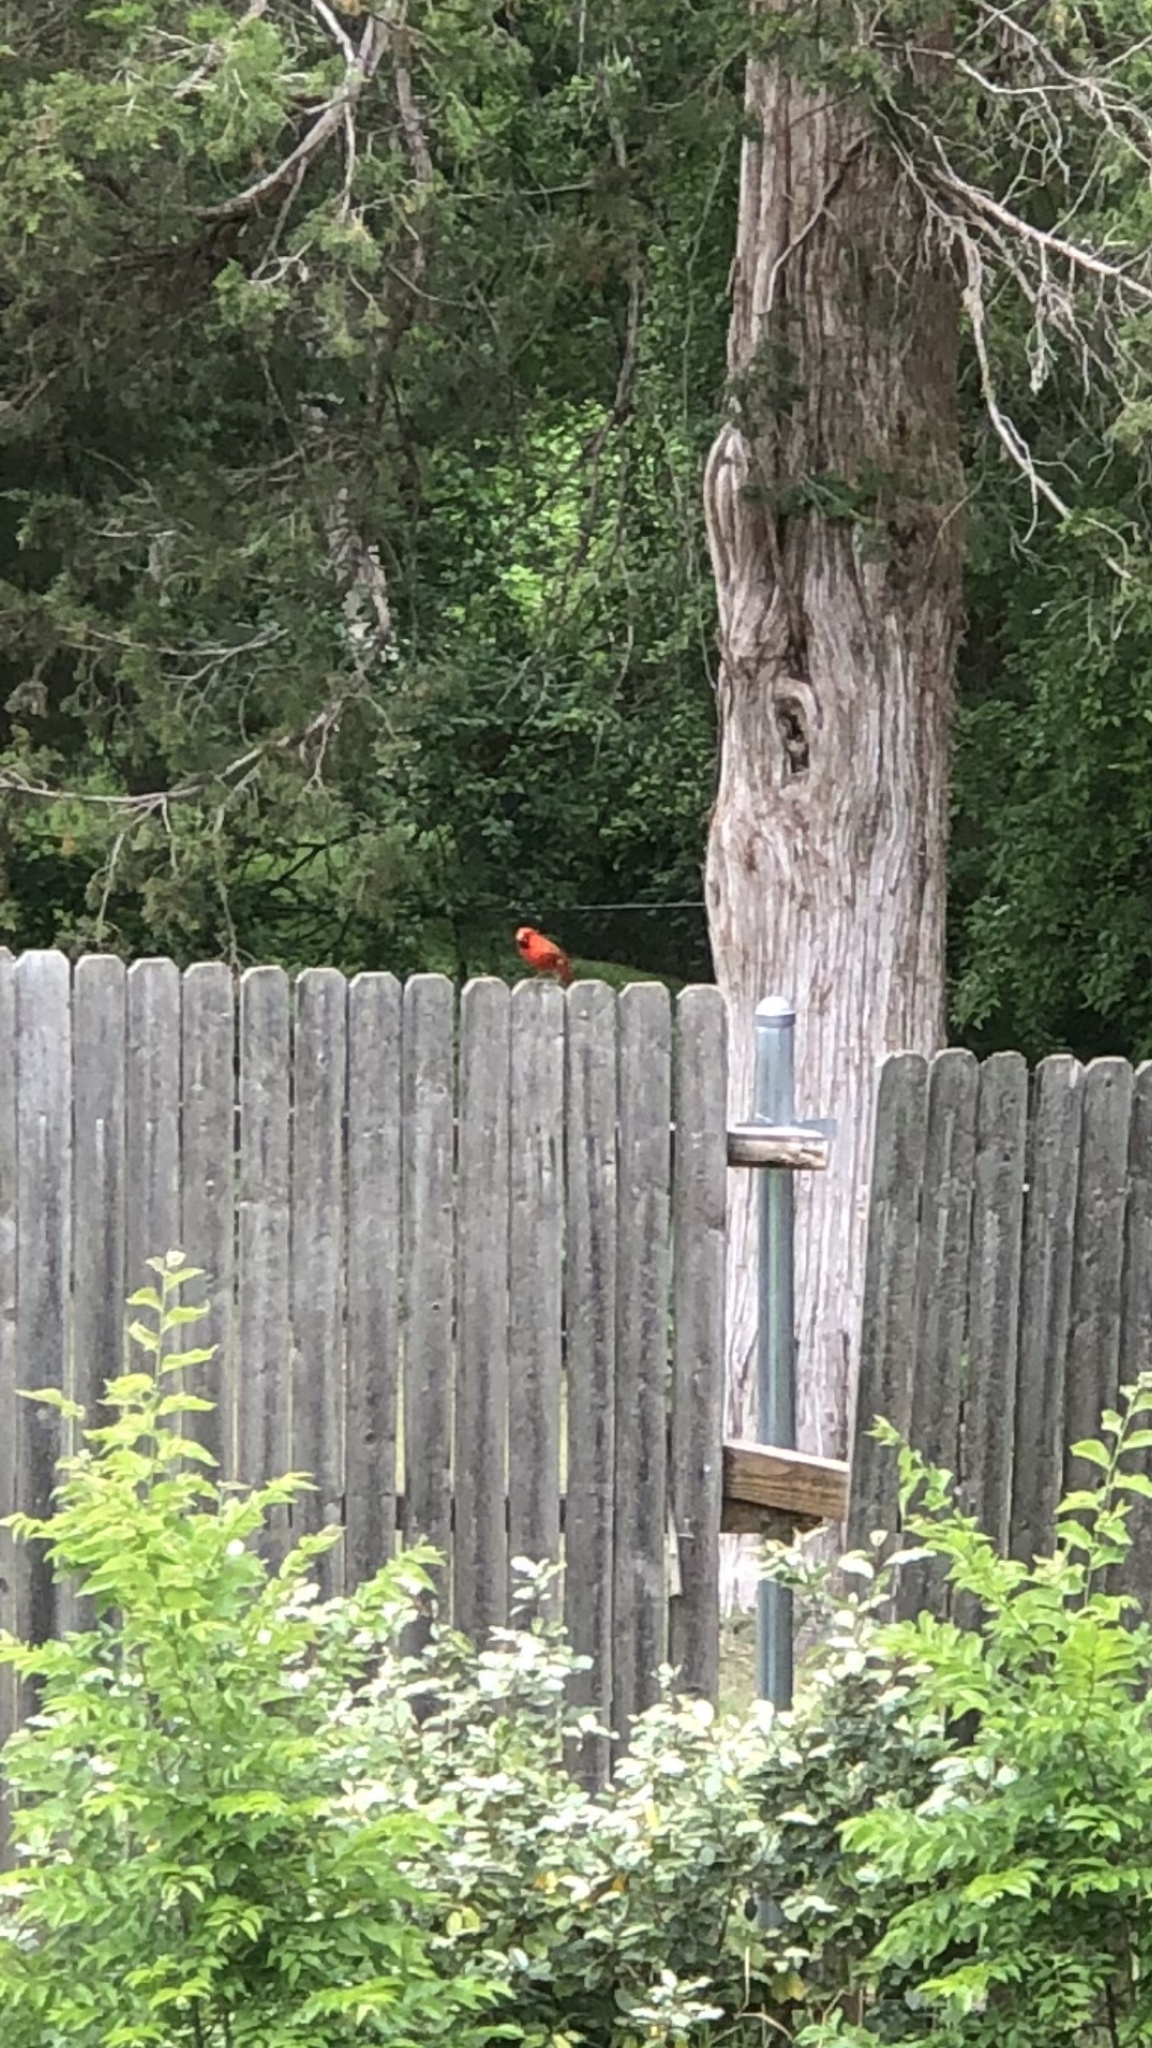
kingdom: Animalia
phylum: Chordata
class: Aves
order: Passeriformes
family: Cardinalidae
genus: Cardinalis
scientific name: Cardinalis cardinalis
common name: Northern cardinal
